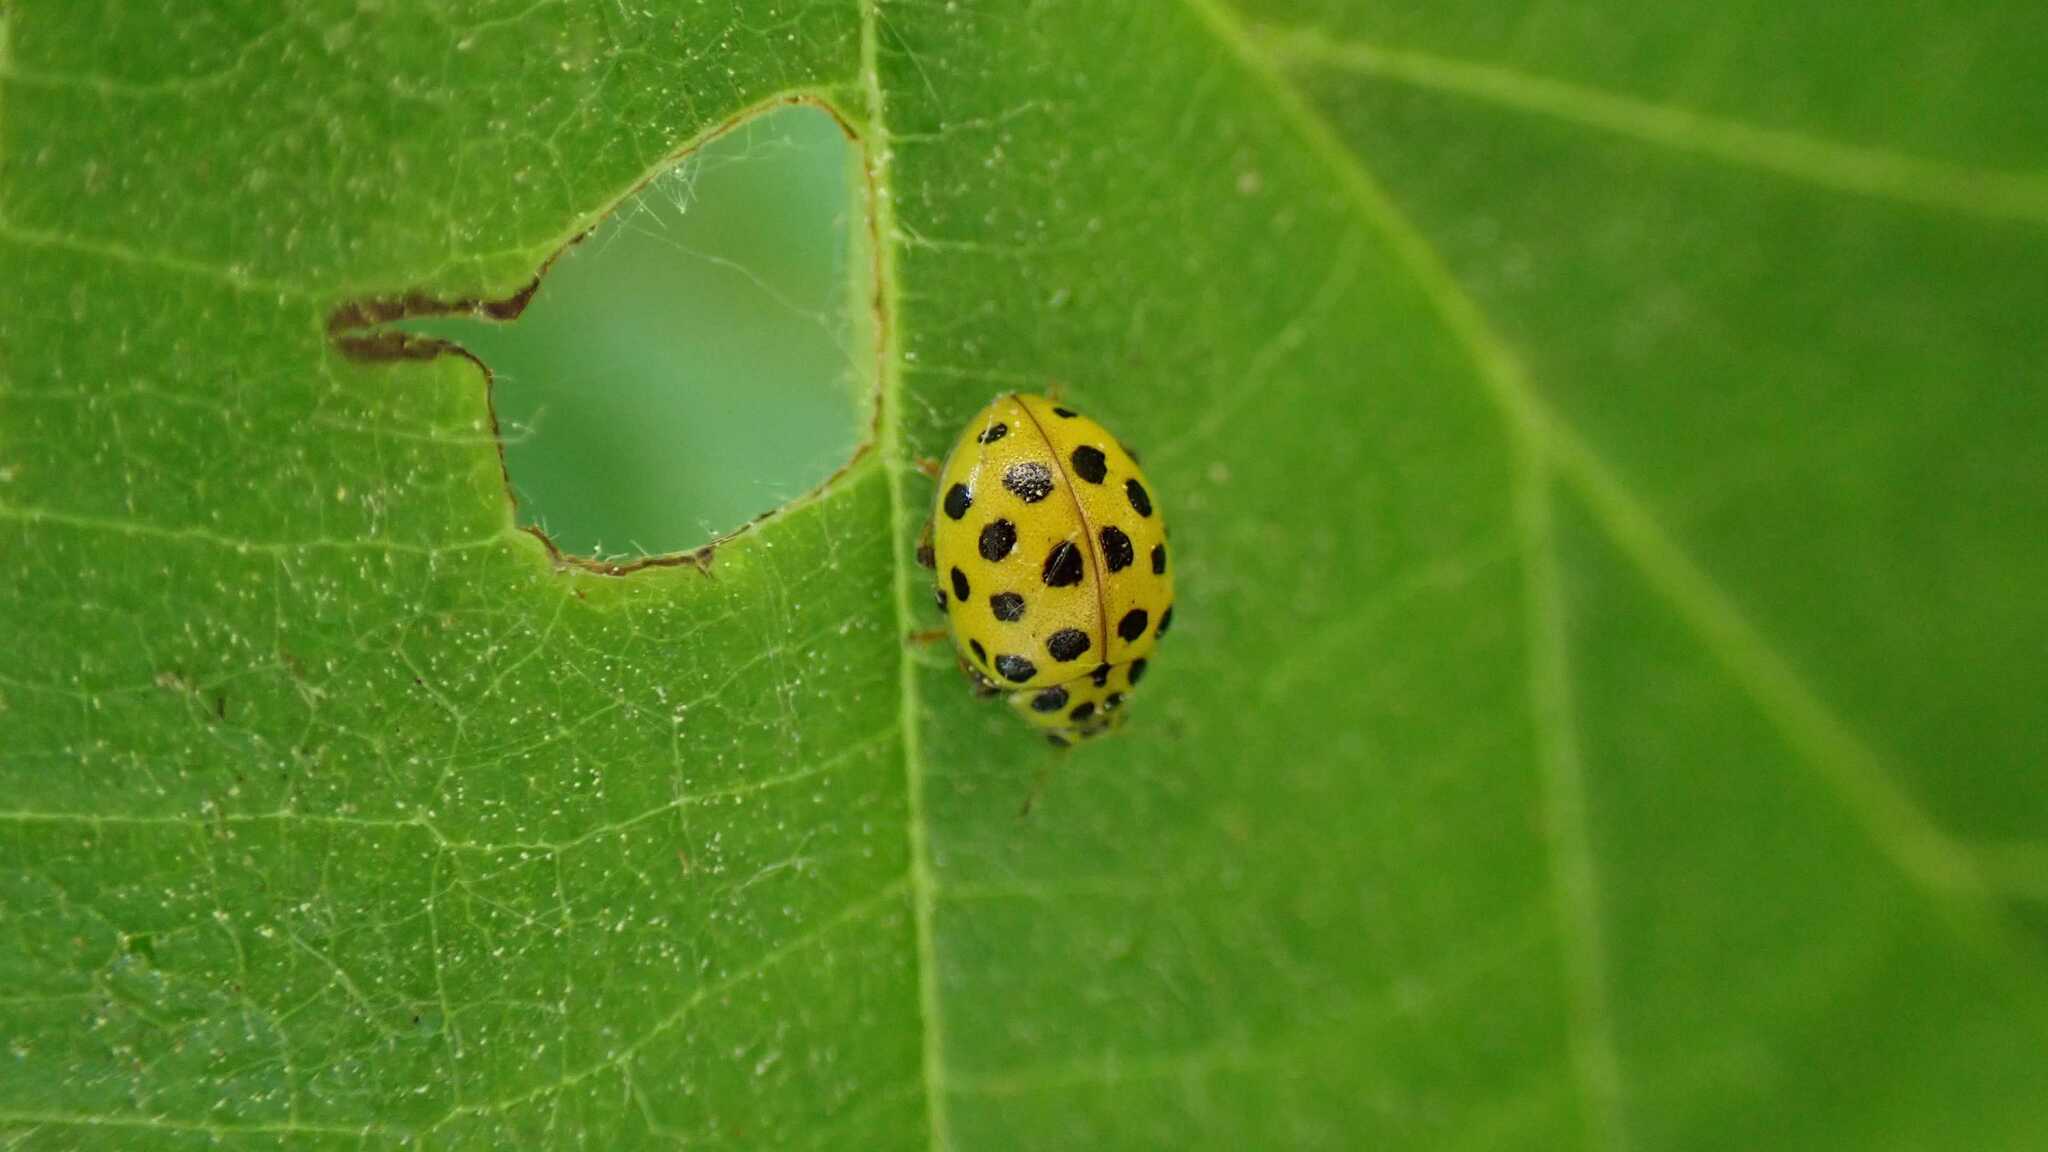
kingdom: Animalia
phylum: Arthropoda
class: Insecta
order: Coleoptera
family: Coccinellidae
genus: Psyllobora
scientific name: Psyllobora vigintiduopunctata
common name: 22-spot ladybird
